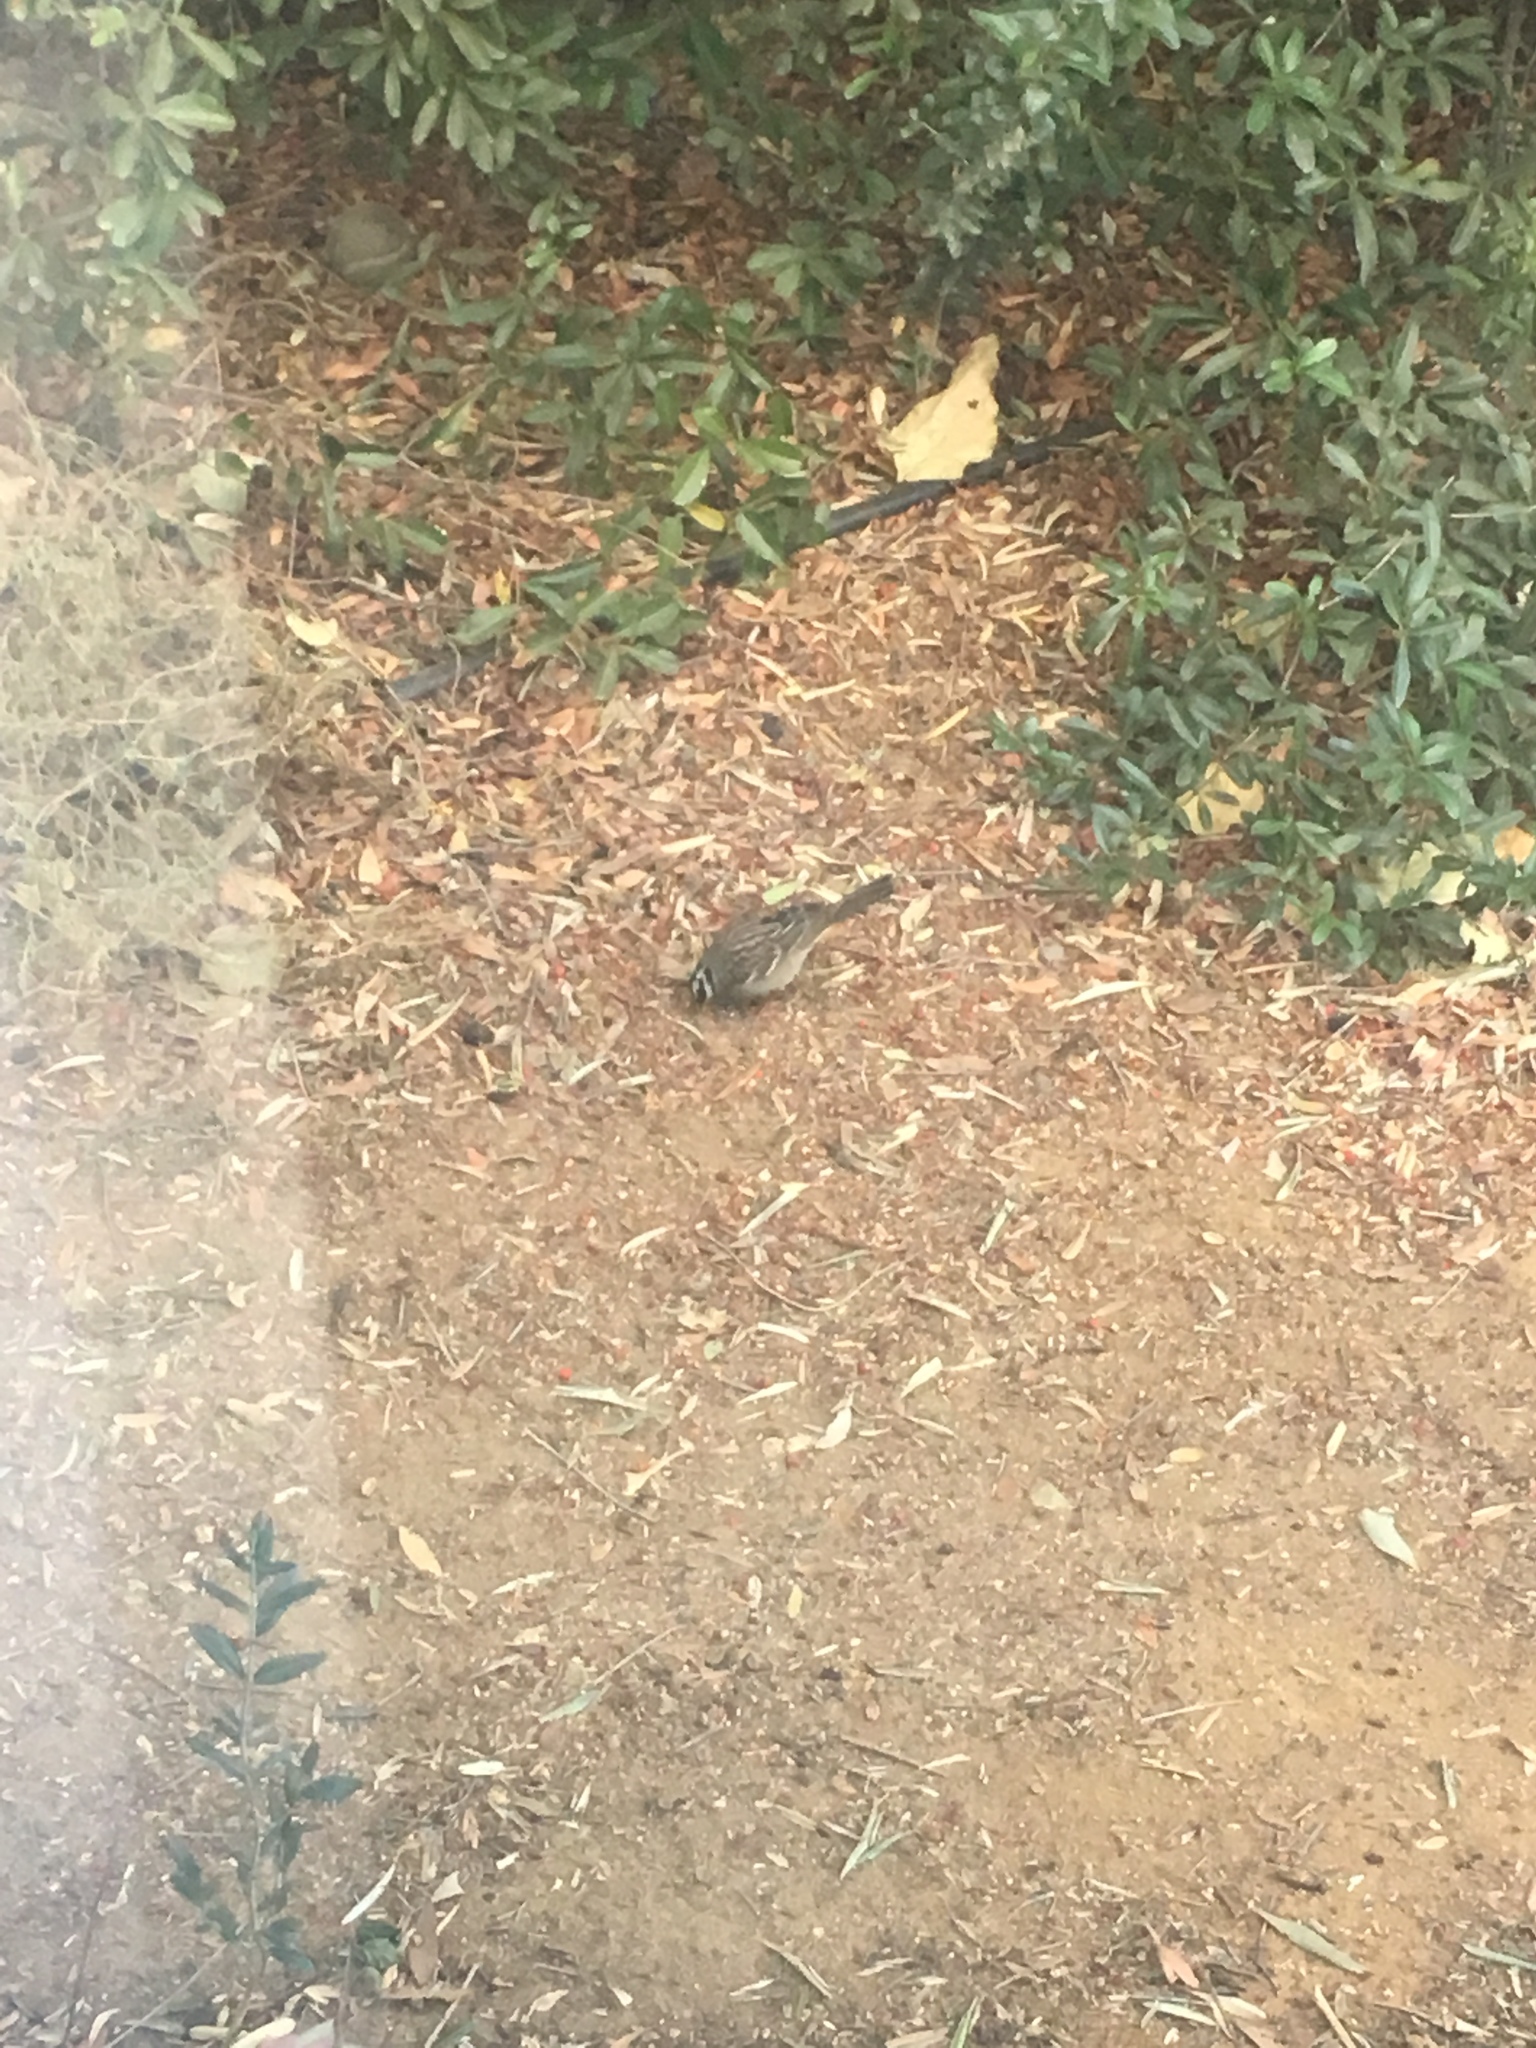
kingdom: Animalia
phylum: Chordata
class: Aves
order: Passeriformes
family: Passerellidae
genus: Zonotrichia
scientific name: Zonotrichia leucophrys
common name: White-crowned sparrow
